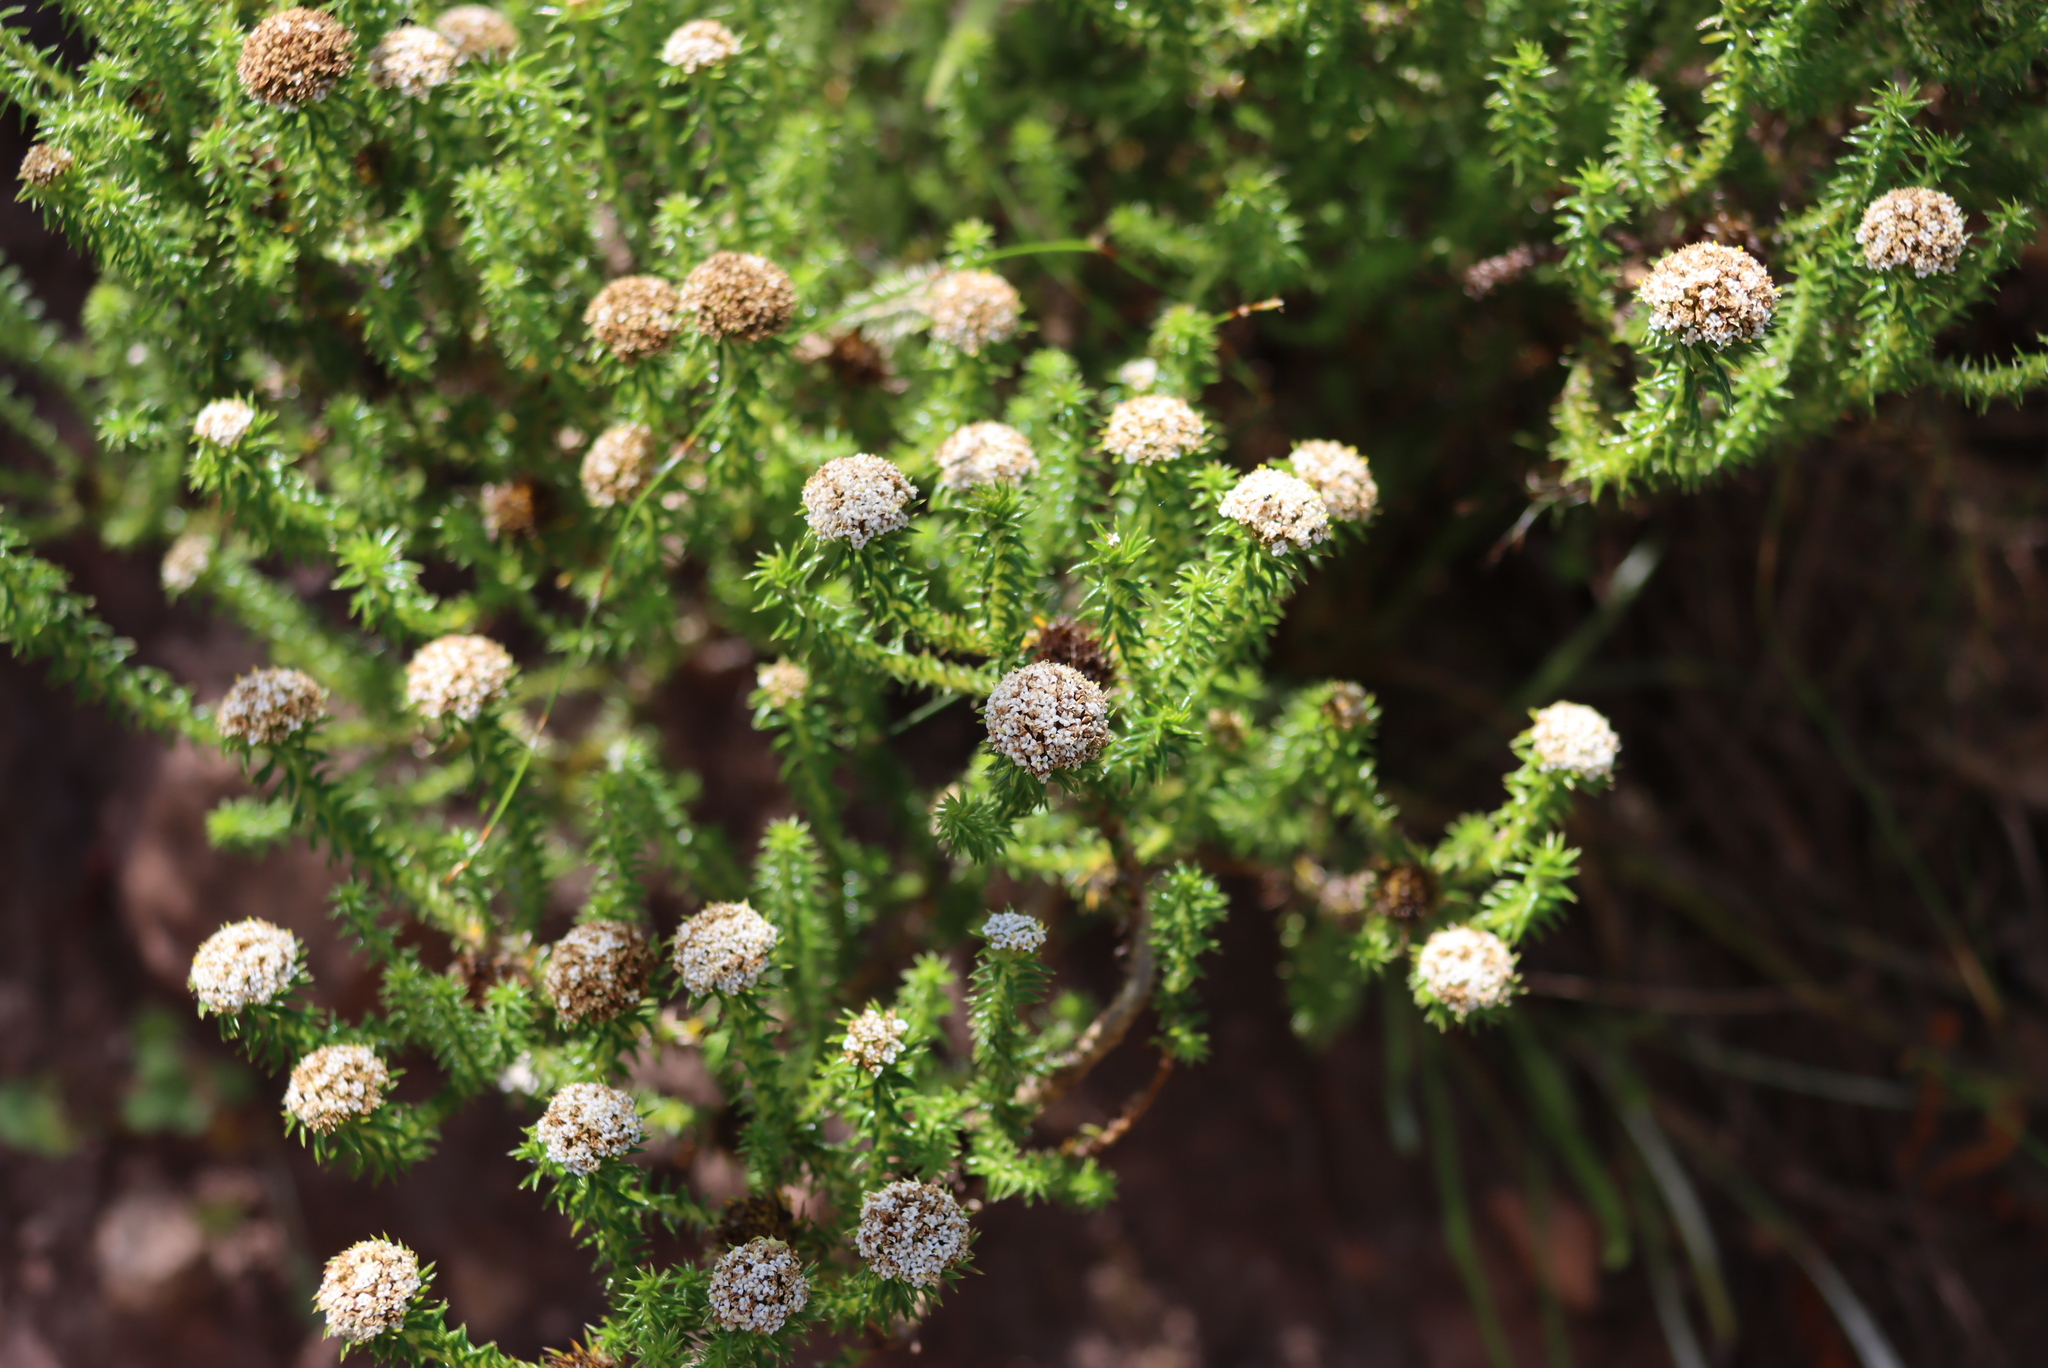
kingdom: Plantae
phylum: Tracheophyta
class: Magnoliopsida
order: Asterales
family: Asteraceae
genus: Stoebe
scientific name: Stoebe aethiopica
